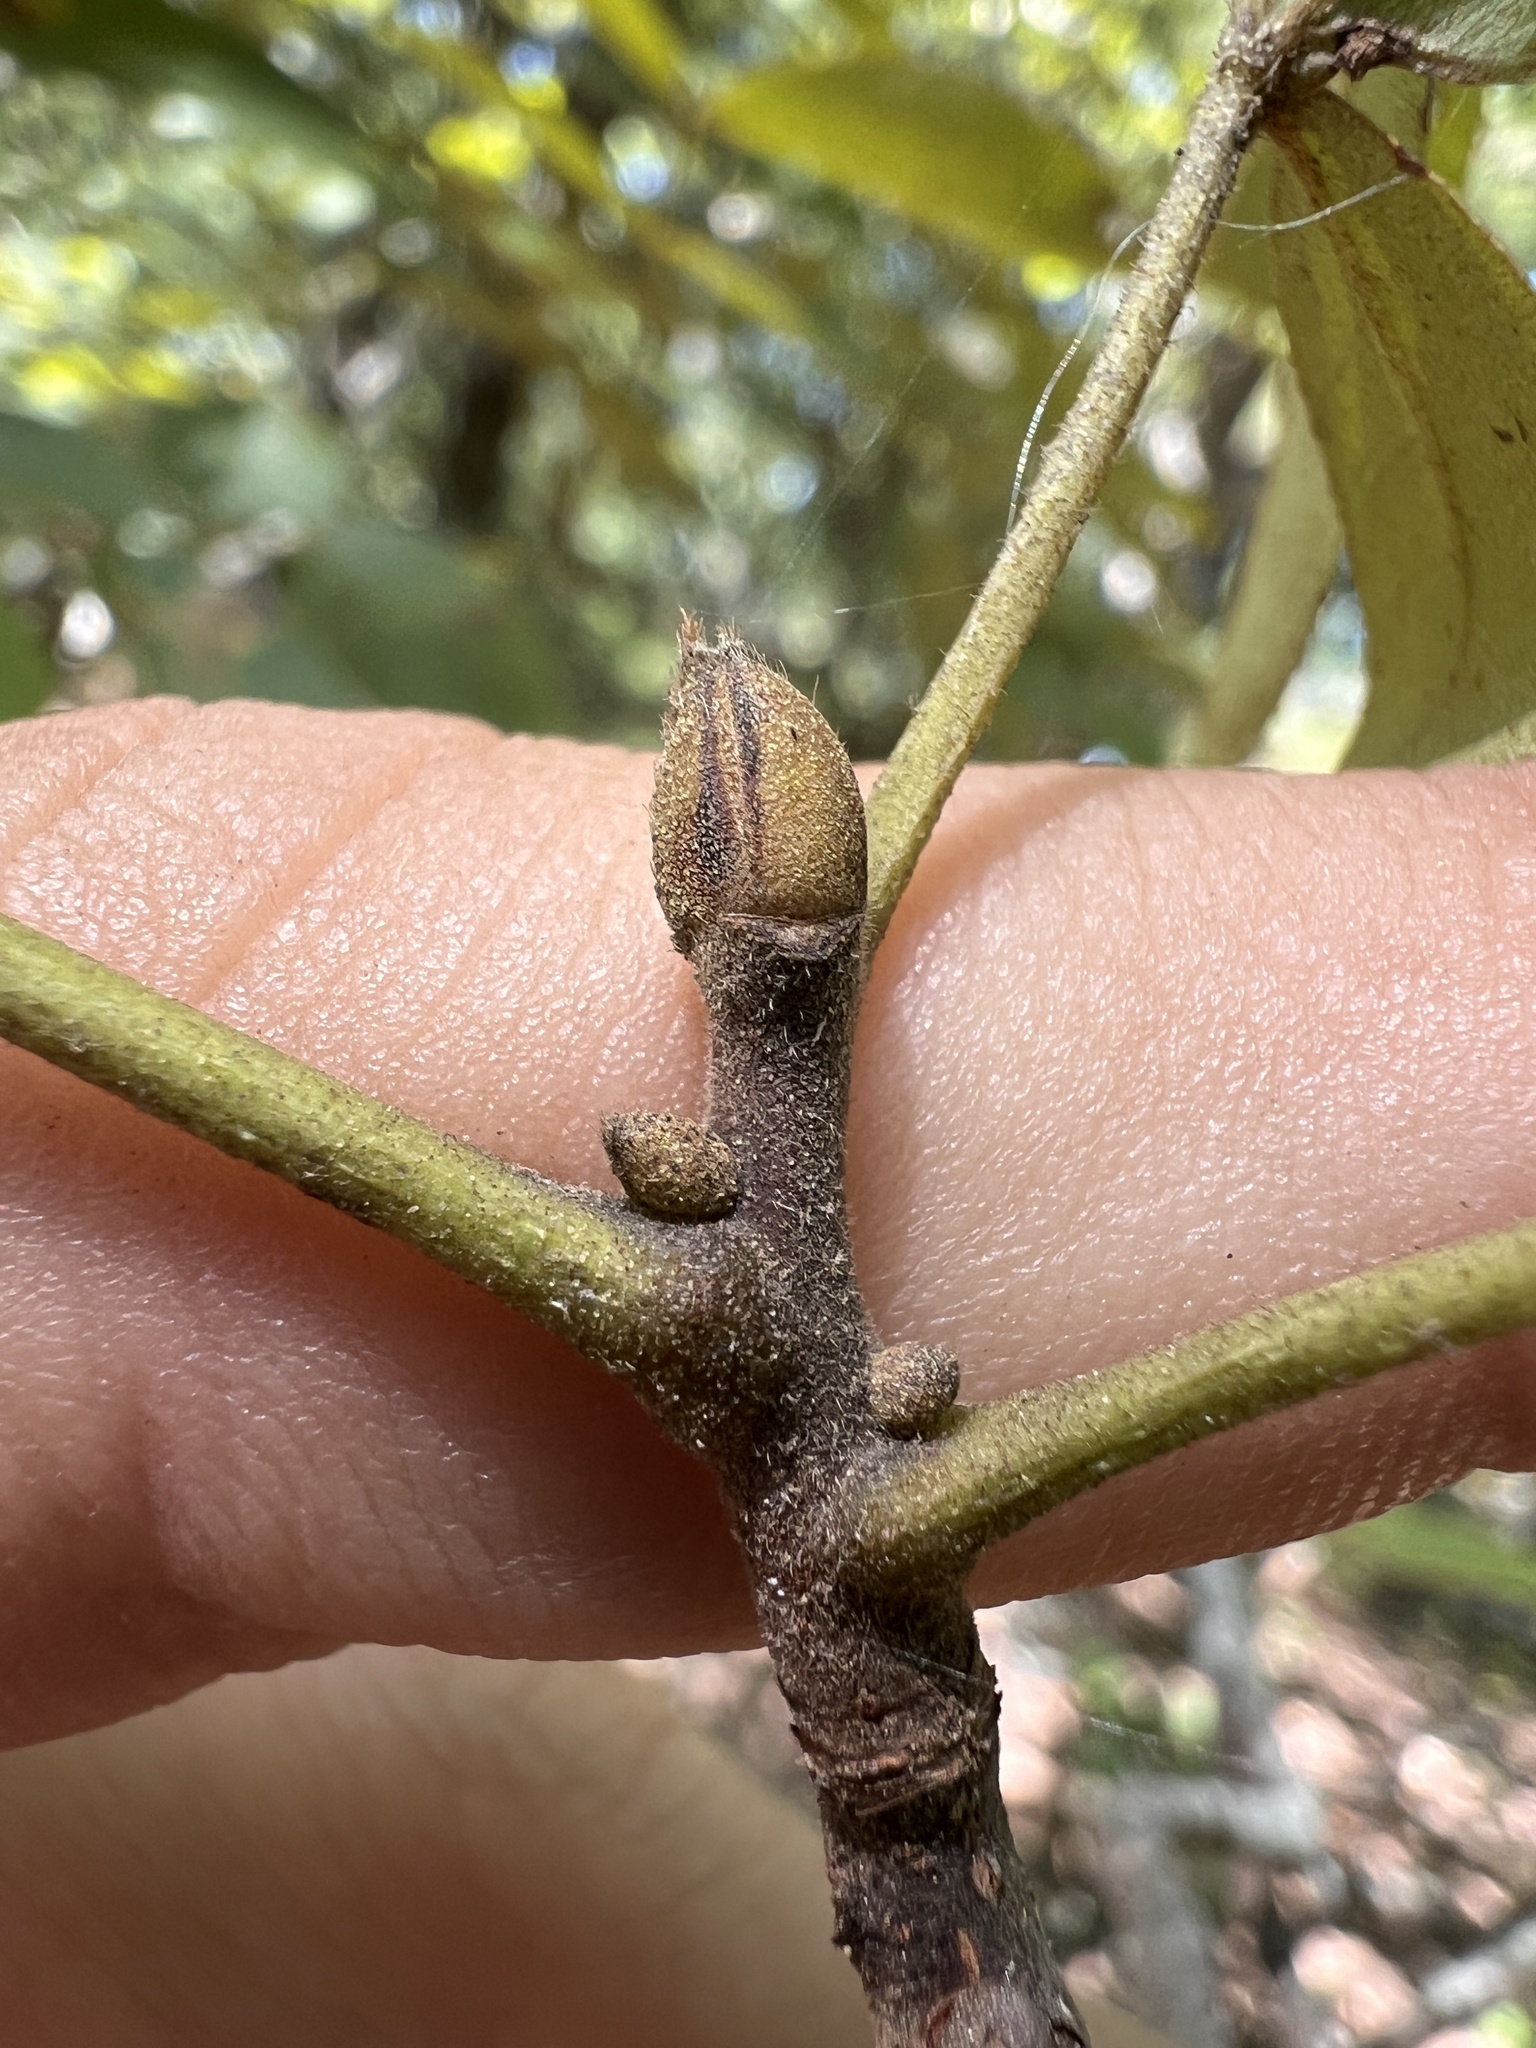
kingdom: Plantae
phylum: Tracheophyta
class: Magnoliopsida
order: Fagales
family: Juglandaceae
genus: Carya
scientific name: Carya texana
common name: Black hickory
